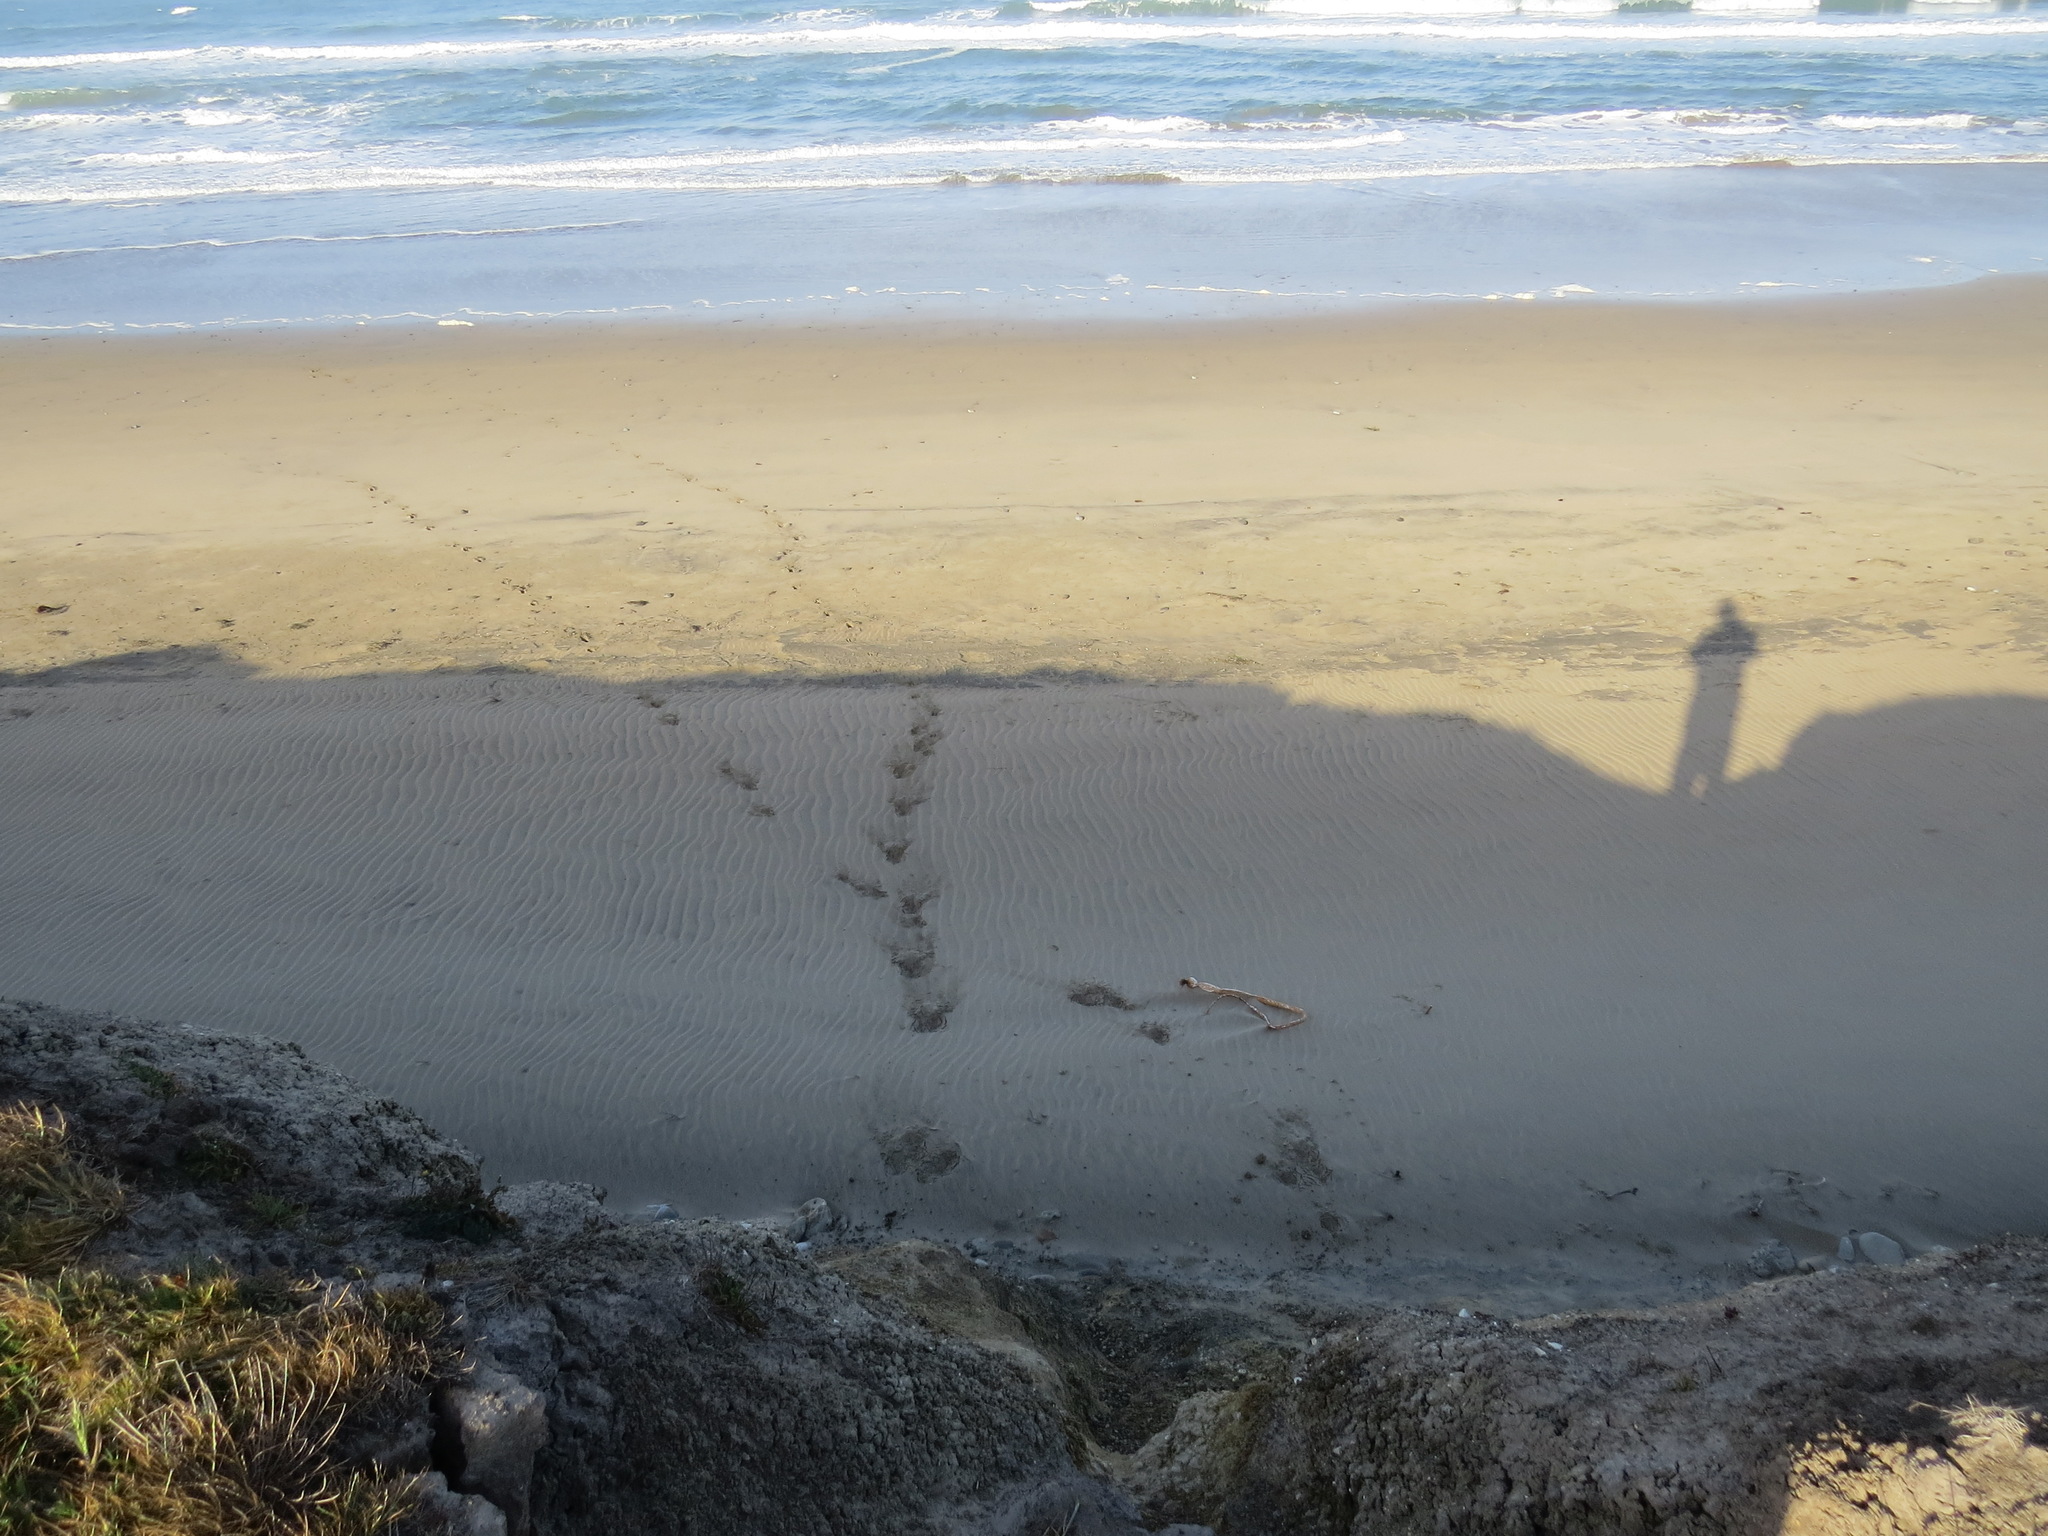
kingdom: Animalia
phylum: Chordata
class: Mammalia
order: Artiodactyla
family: Cervidae
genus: Odocoileus
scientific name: Odocoileus hemionus
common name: Mule deer
